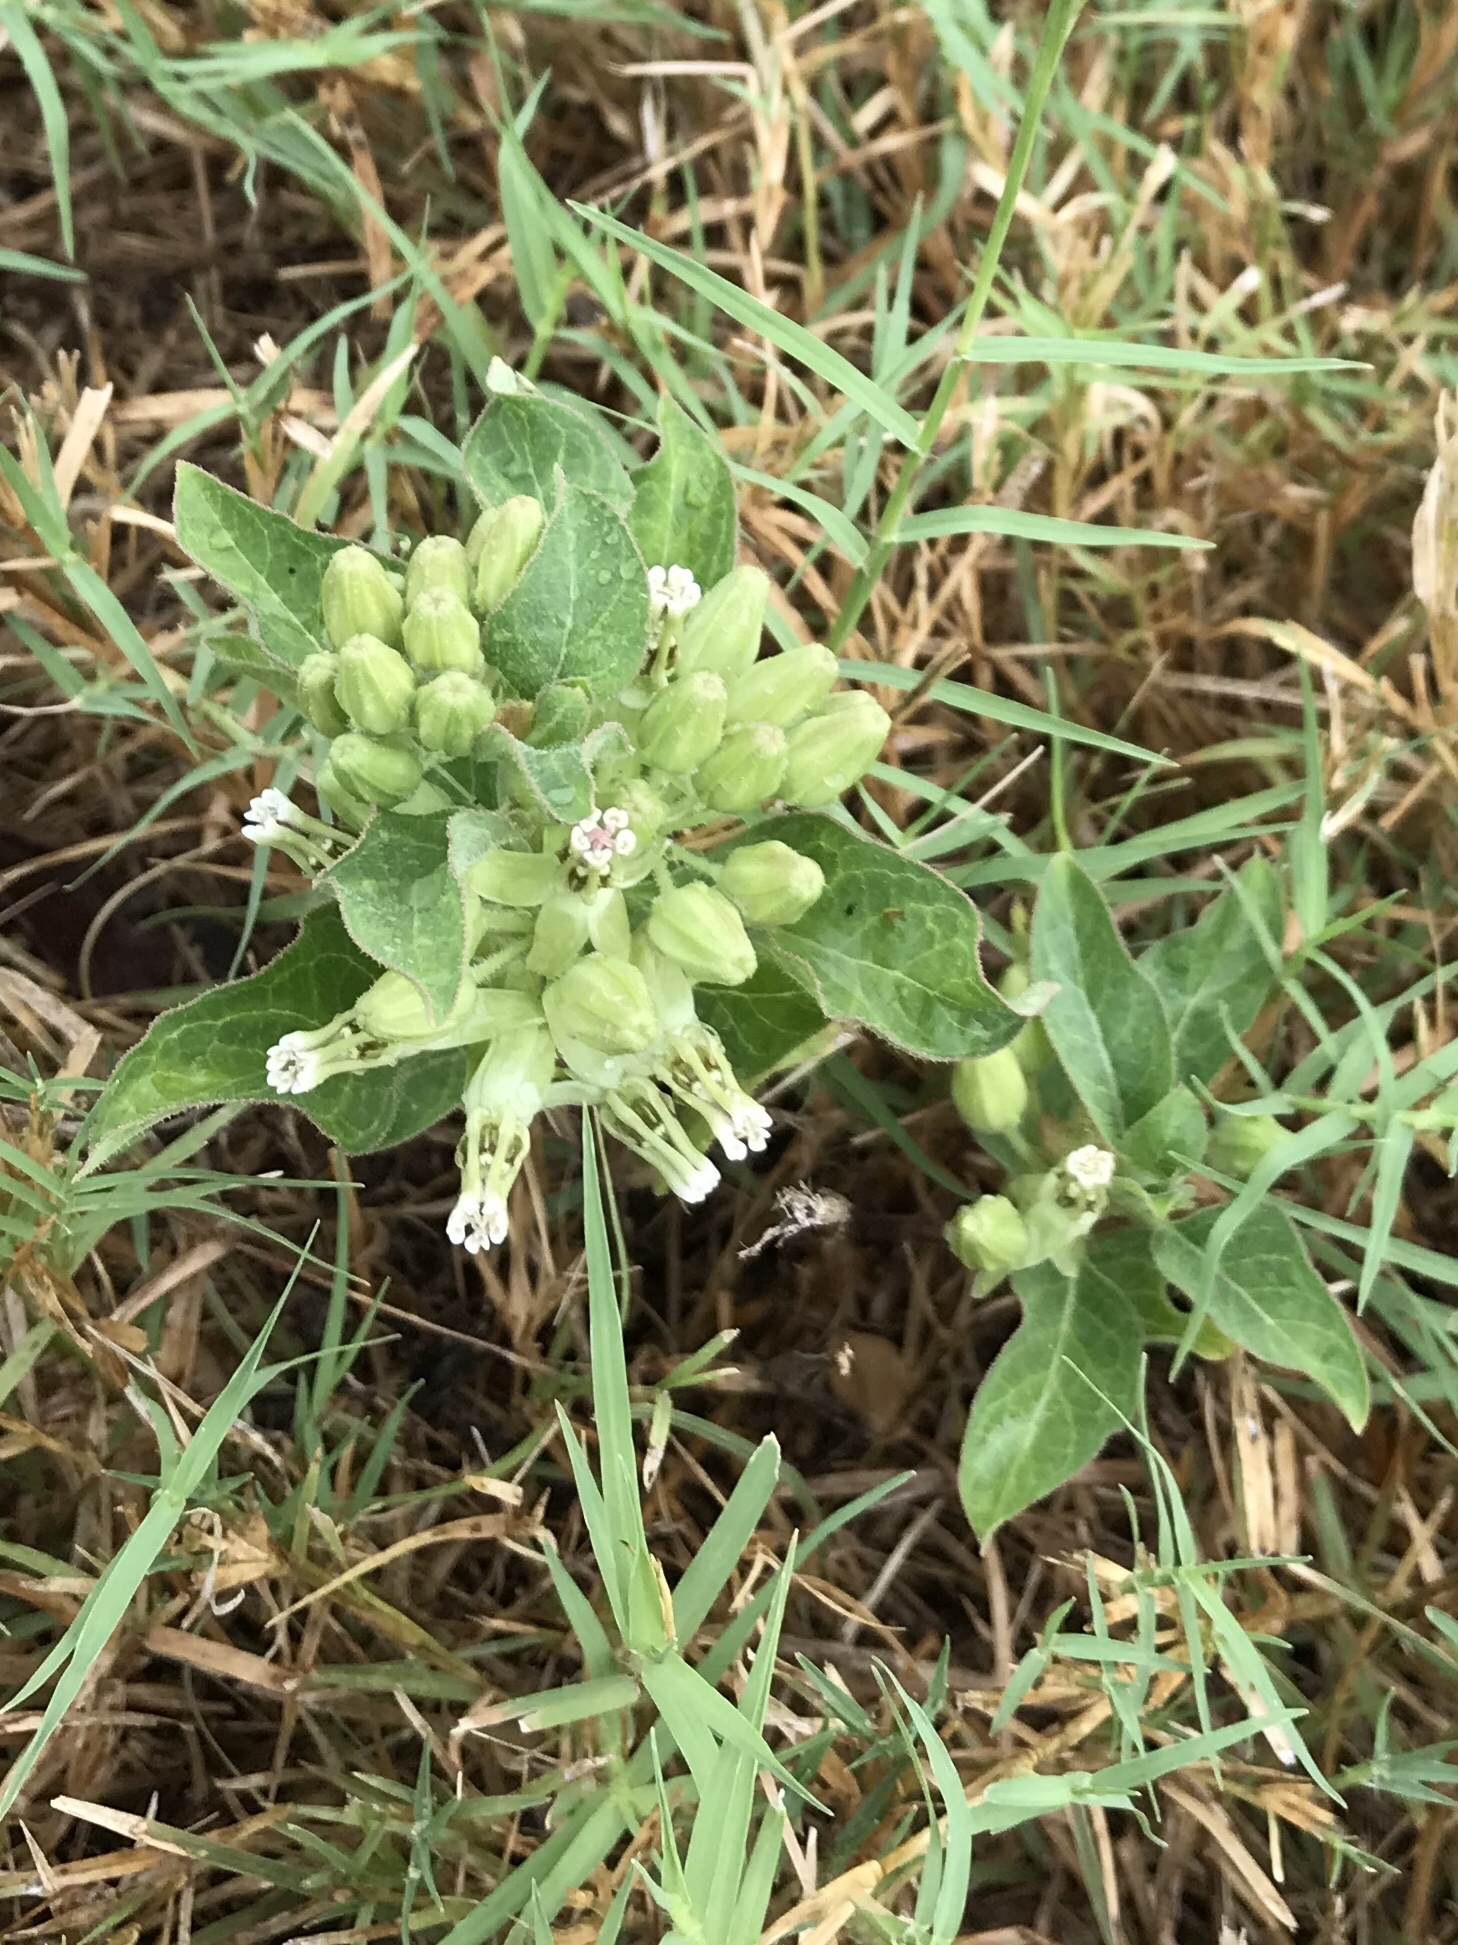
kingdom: Plantae
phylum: Tracheophyta
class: Magnoliopsida
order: Gentianales
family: Apocynaceae
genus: Asclepias
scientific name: Asclepias oenotheroides
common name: Zizotes milkweed
